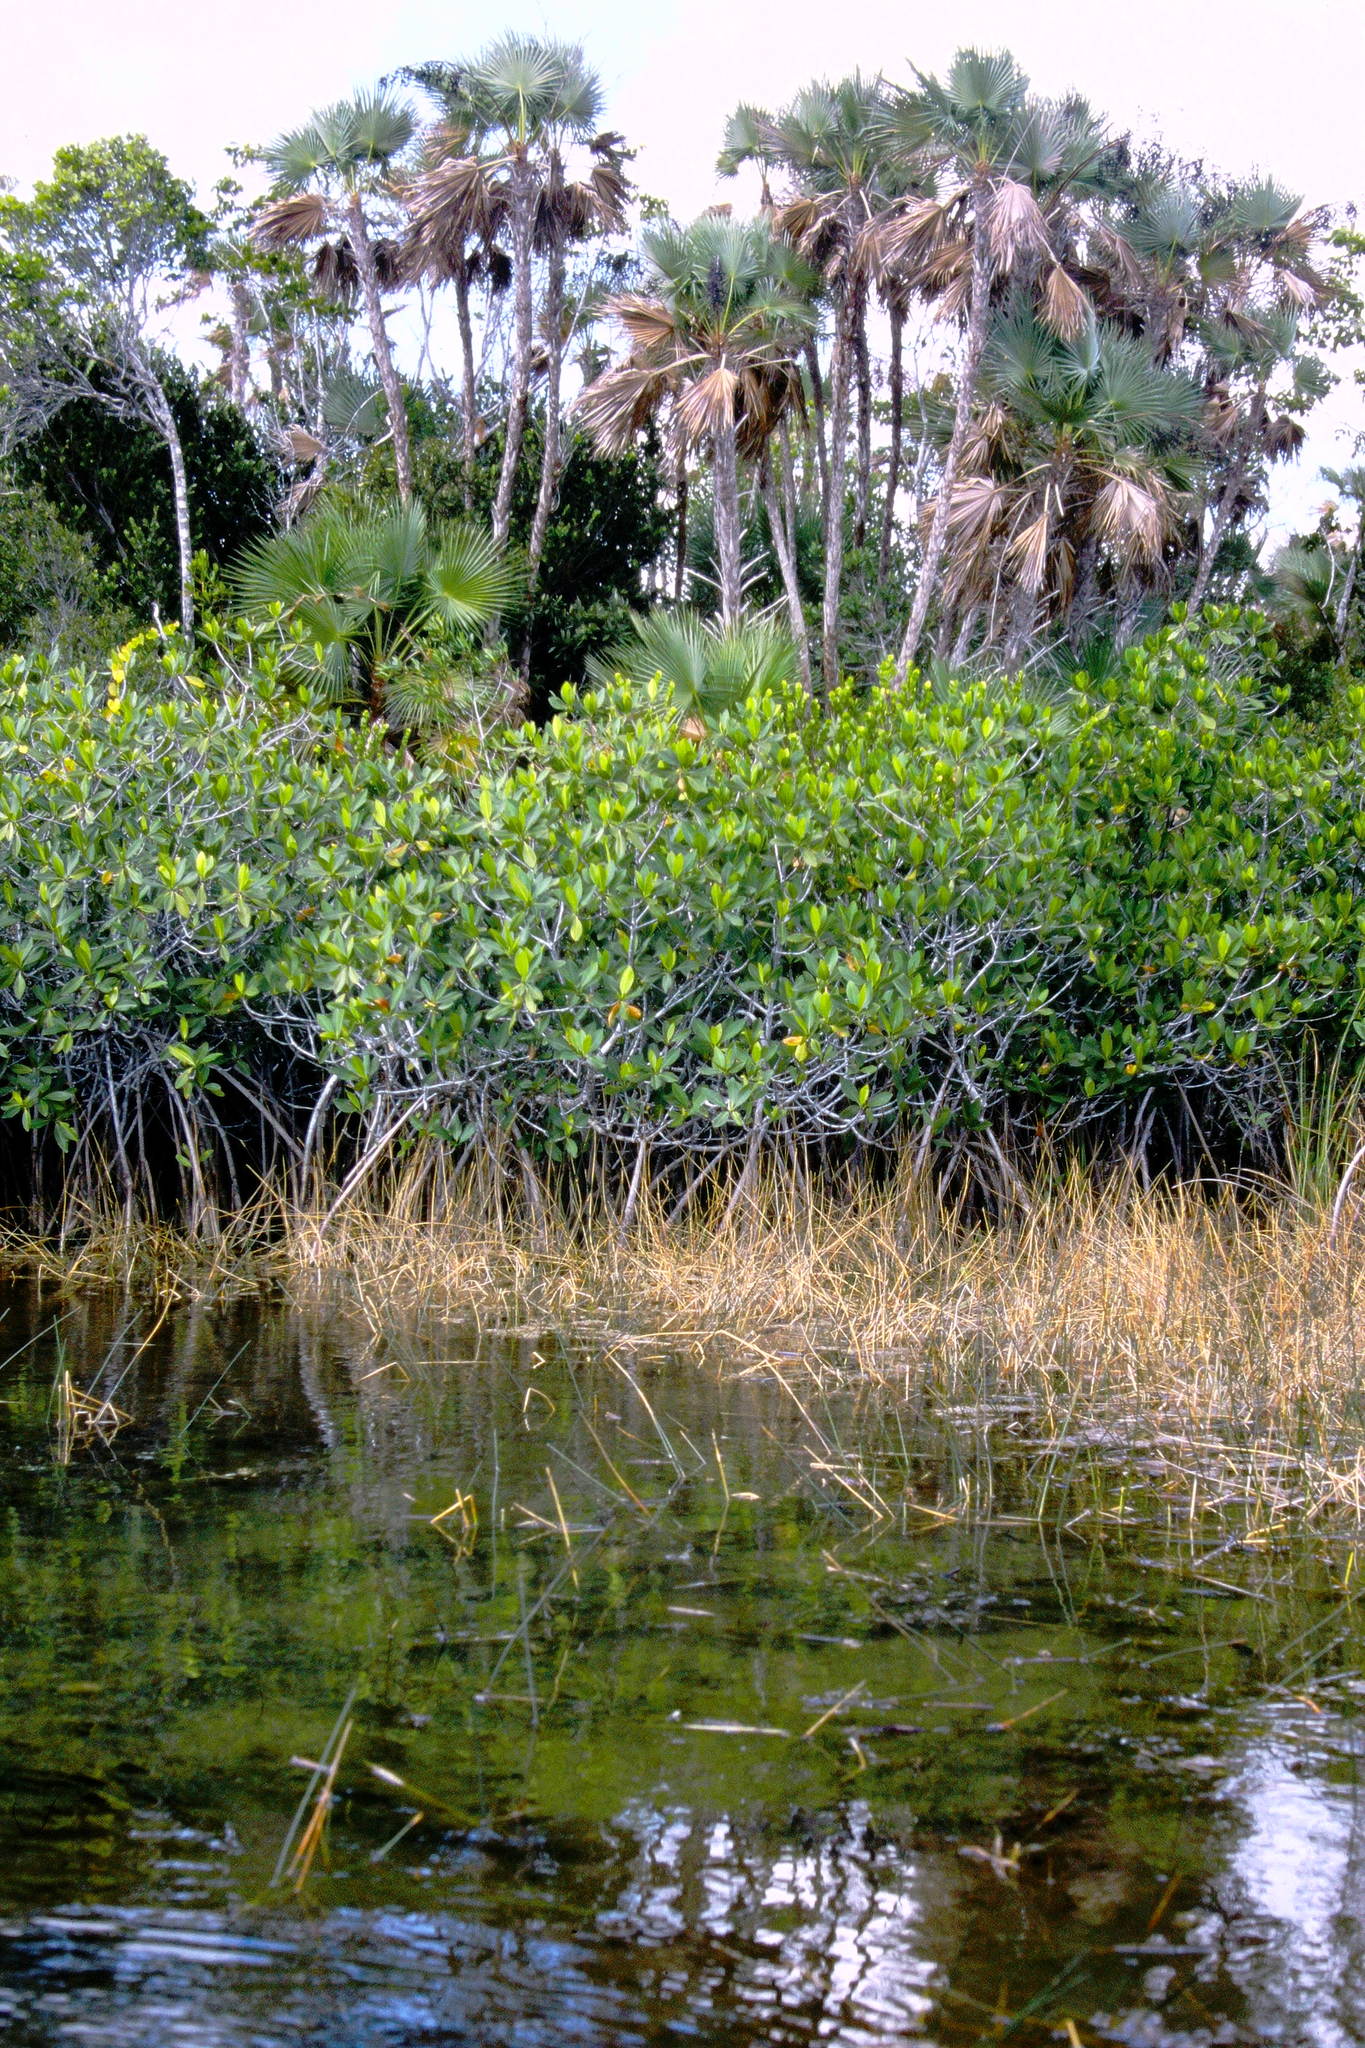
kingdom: Plantae
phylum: Tracheophyta
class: Liliopsida
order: Arecales
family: Arecaceae
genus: Acoelorraphe
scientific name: Acoelorraphe wrightii
